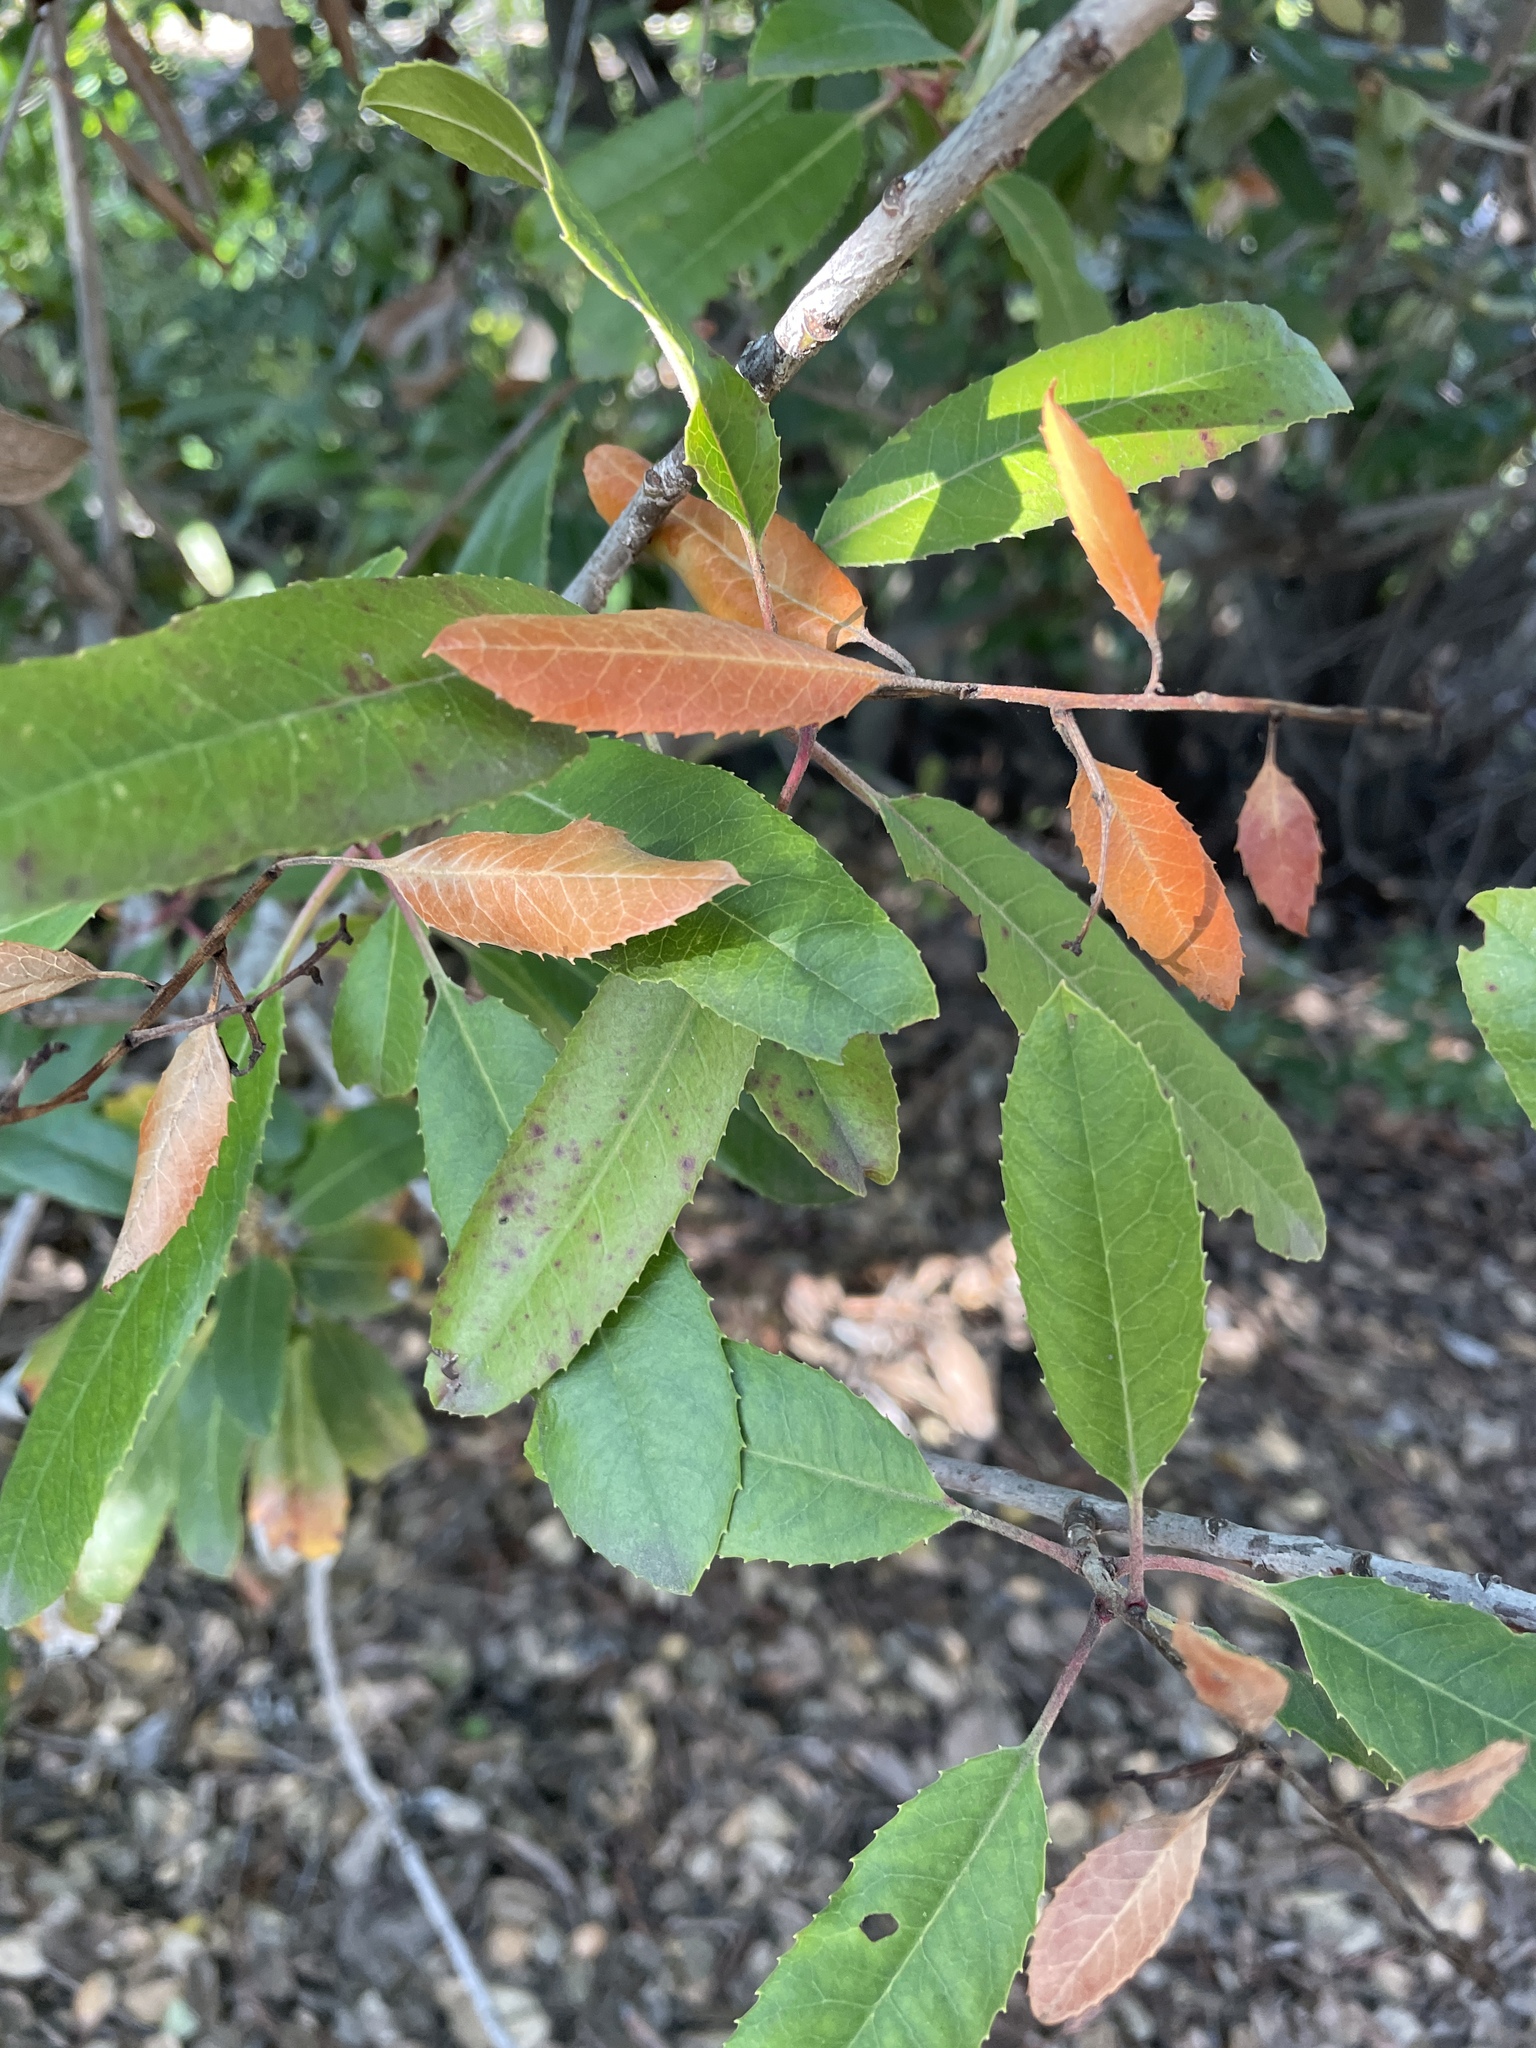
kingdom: Plantae
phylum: Tracheophyta
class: Magnoliopsida
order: Rosales
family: Rosaceae
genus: Heteromeles
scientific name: Heteromeles arbutifolia
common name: California-holly
